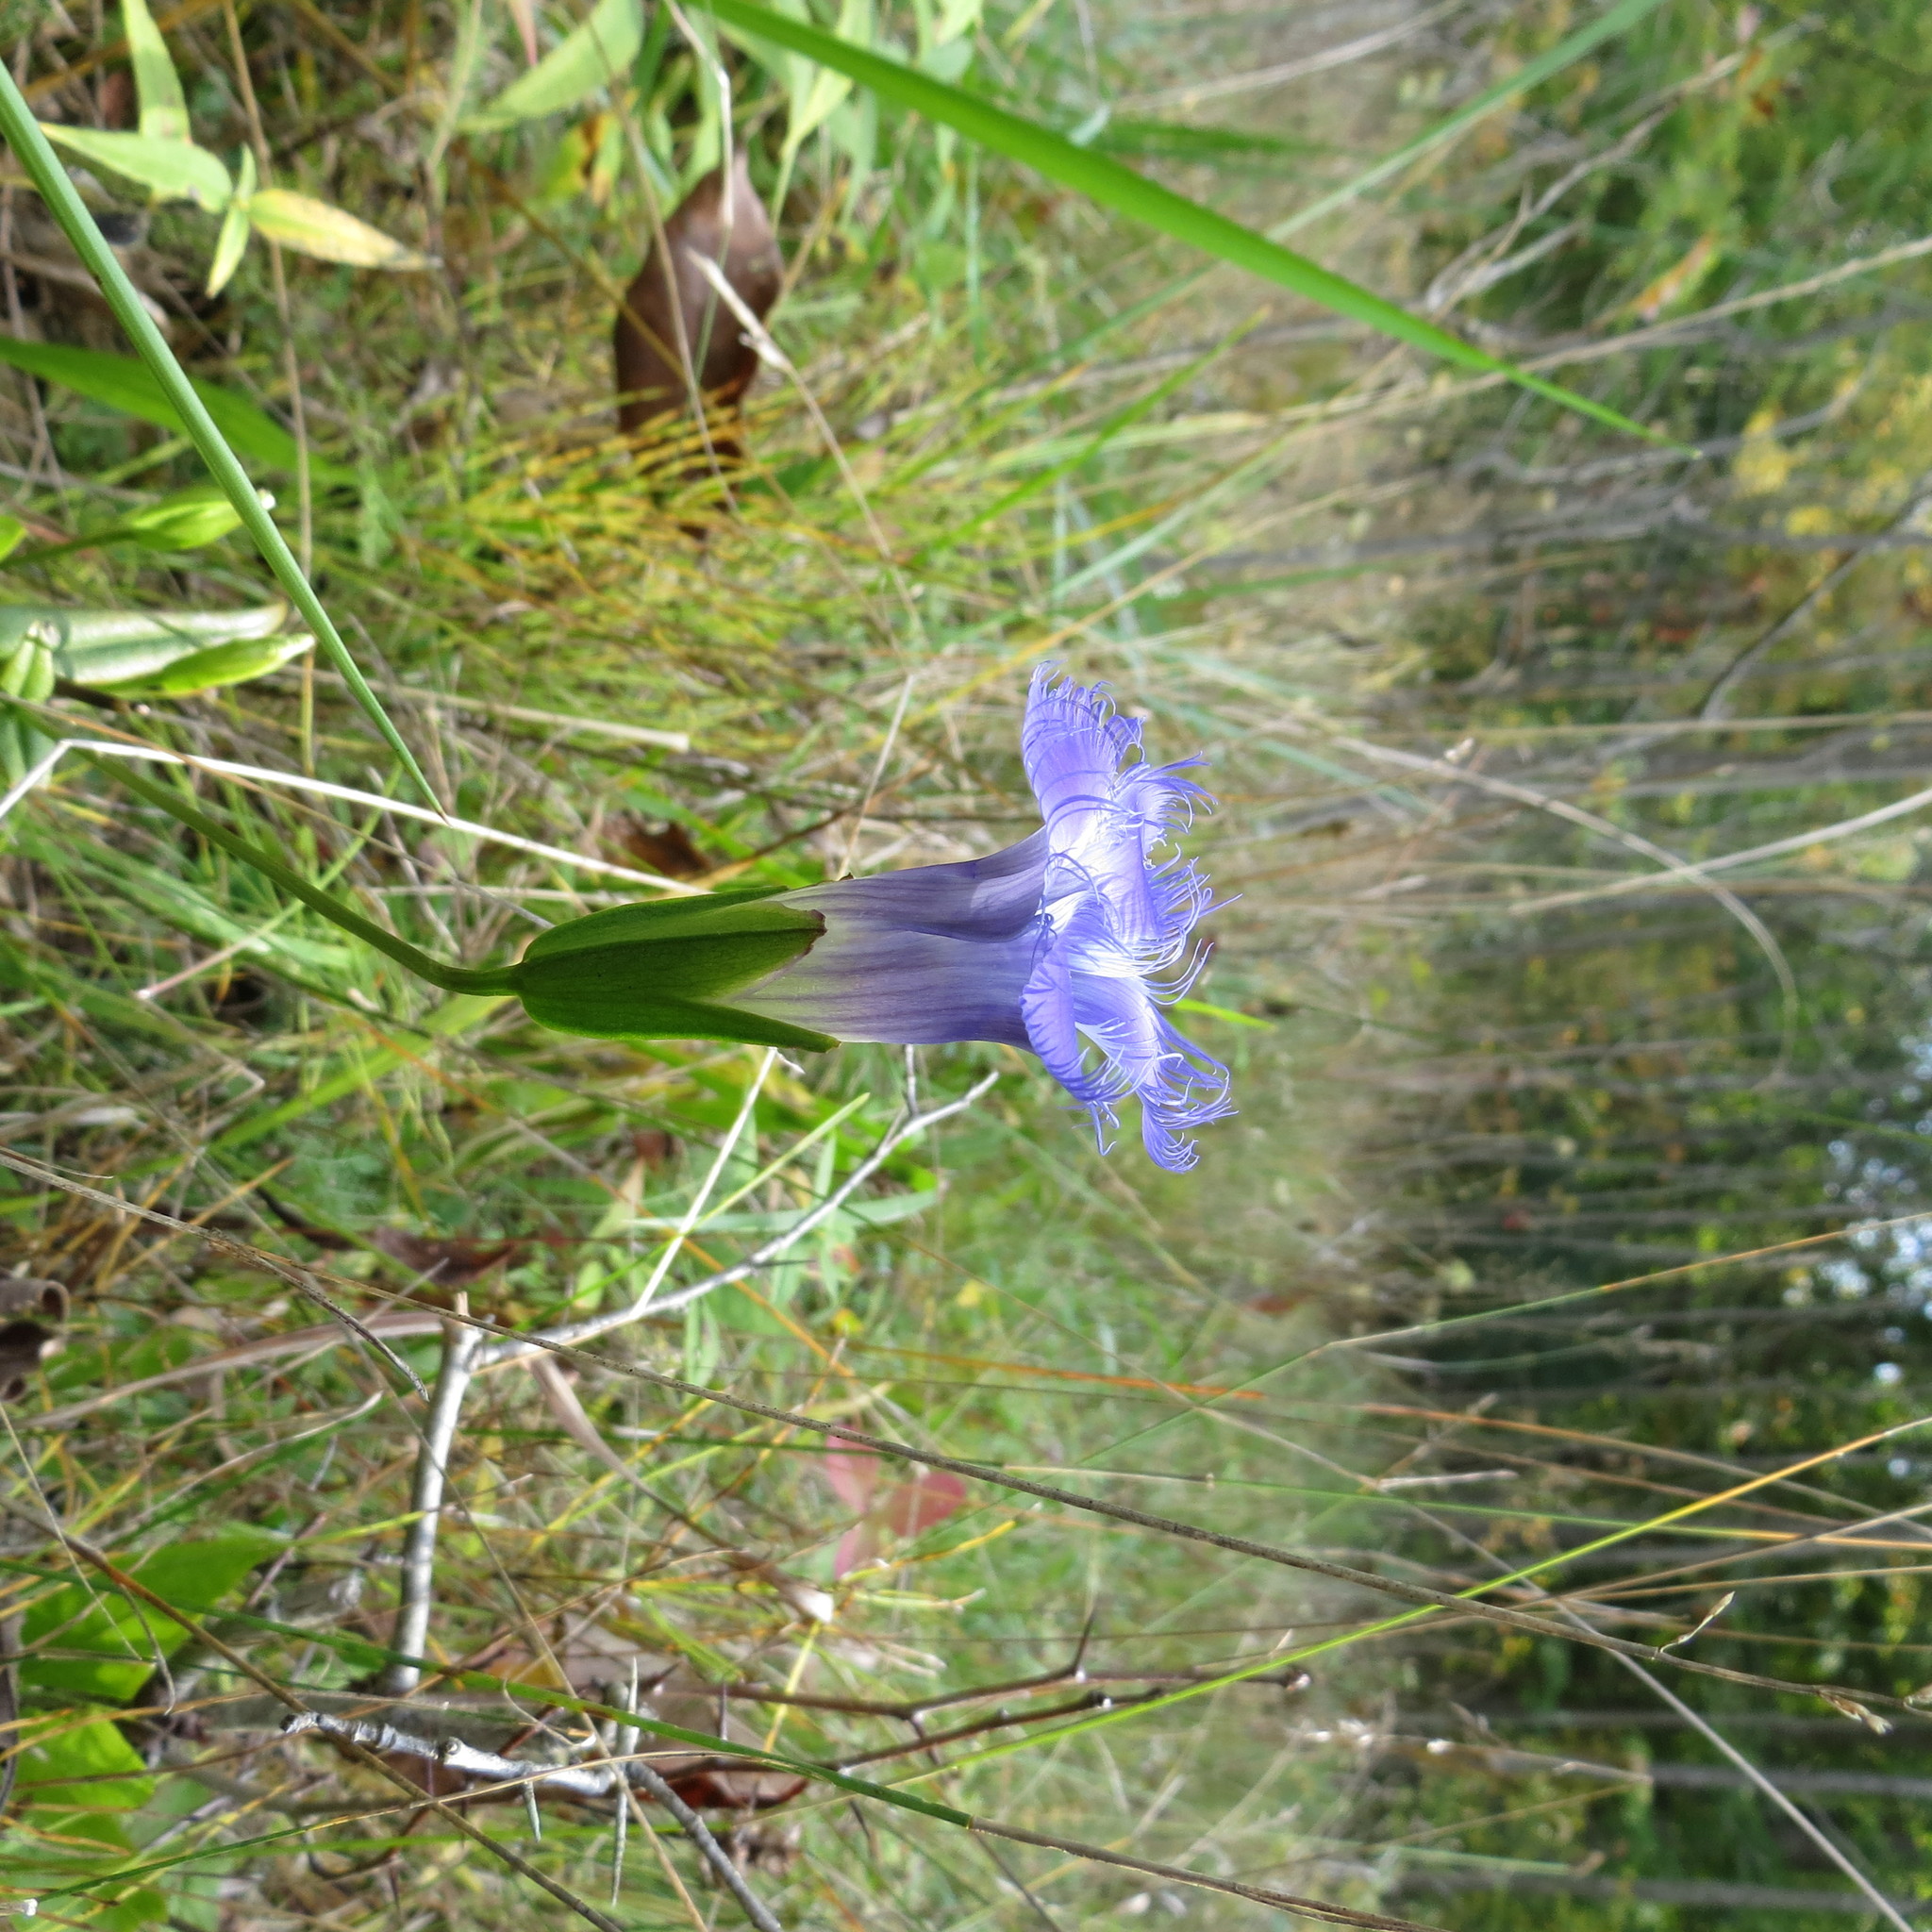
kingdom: Plantae
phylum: Tracheophyta
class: Magnoliopsida
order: Gentianales
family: Gentianaceae
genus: Gentianopsis
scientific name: Gentianopsis crinita
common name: Fringed-gentian
